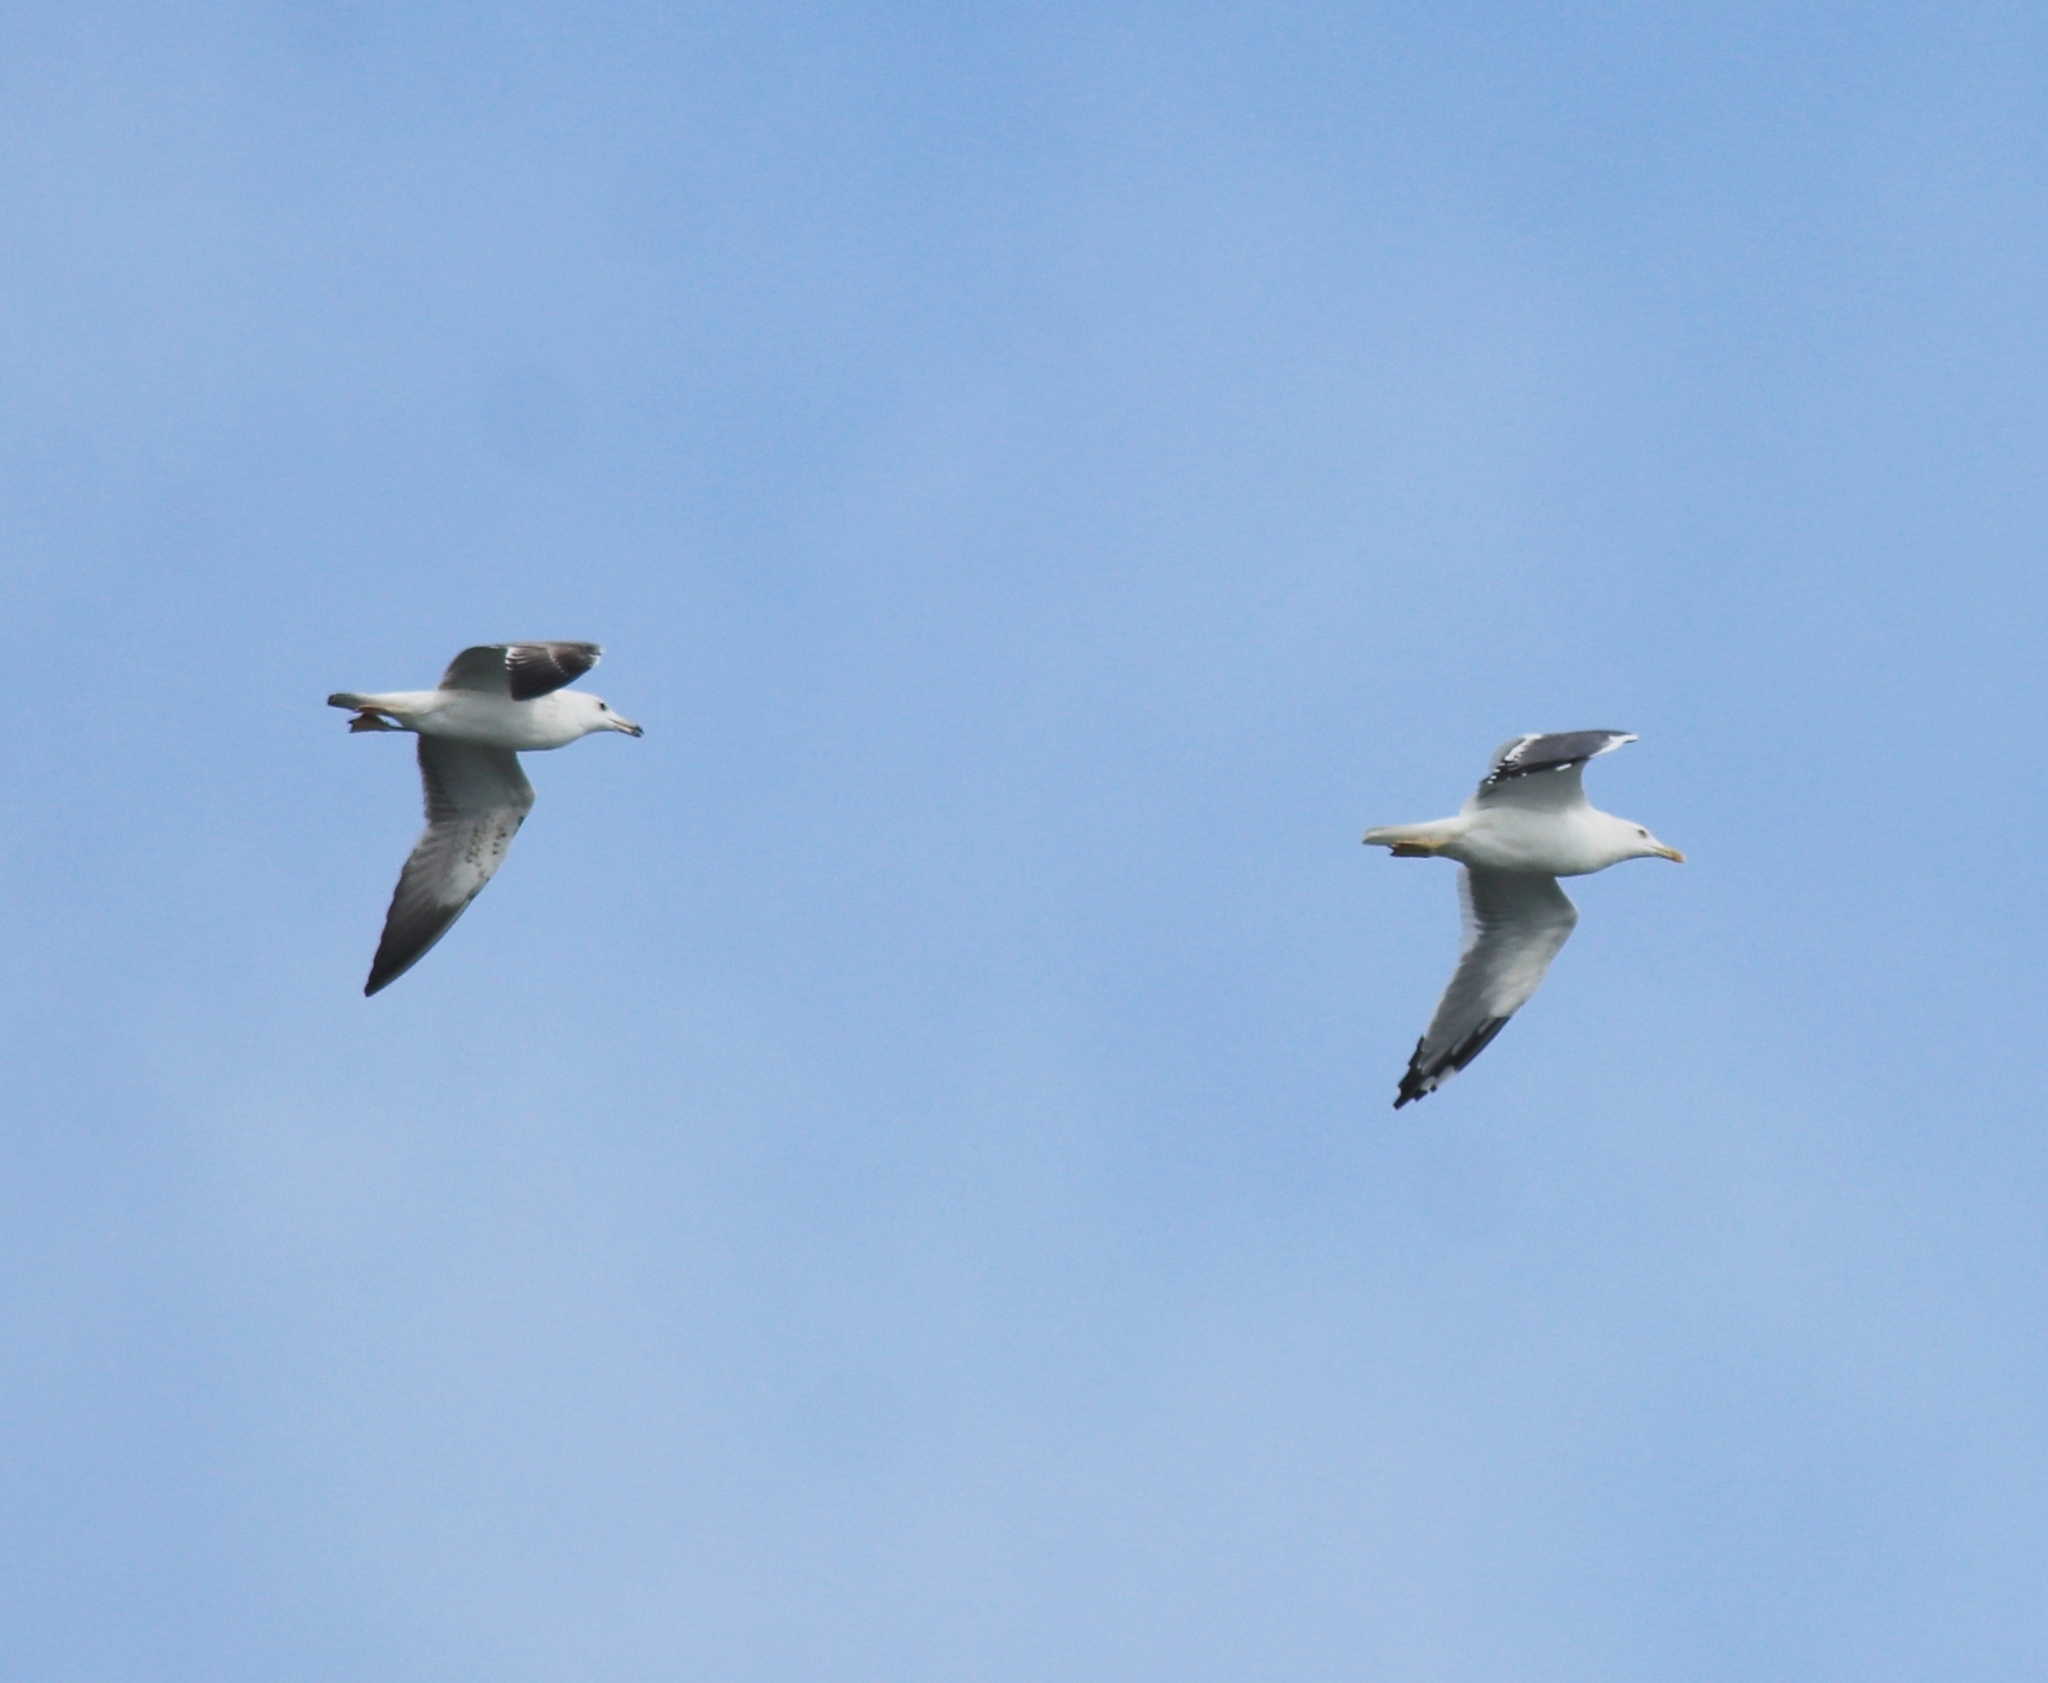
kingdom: Animalia
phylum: Chordata
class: Aves
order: Charadriiformes
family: Laridae
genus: Larus
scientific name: Larus fuscus
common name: Lesser black-backed gull
